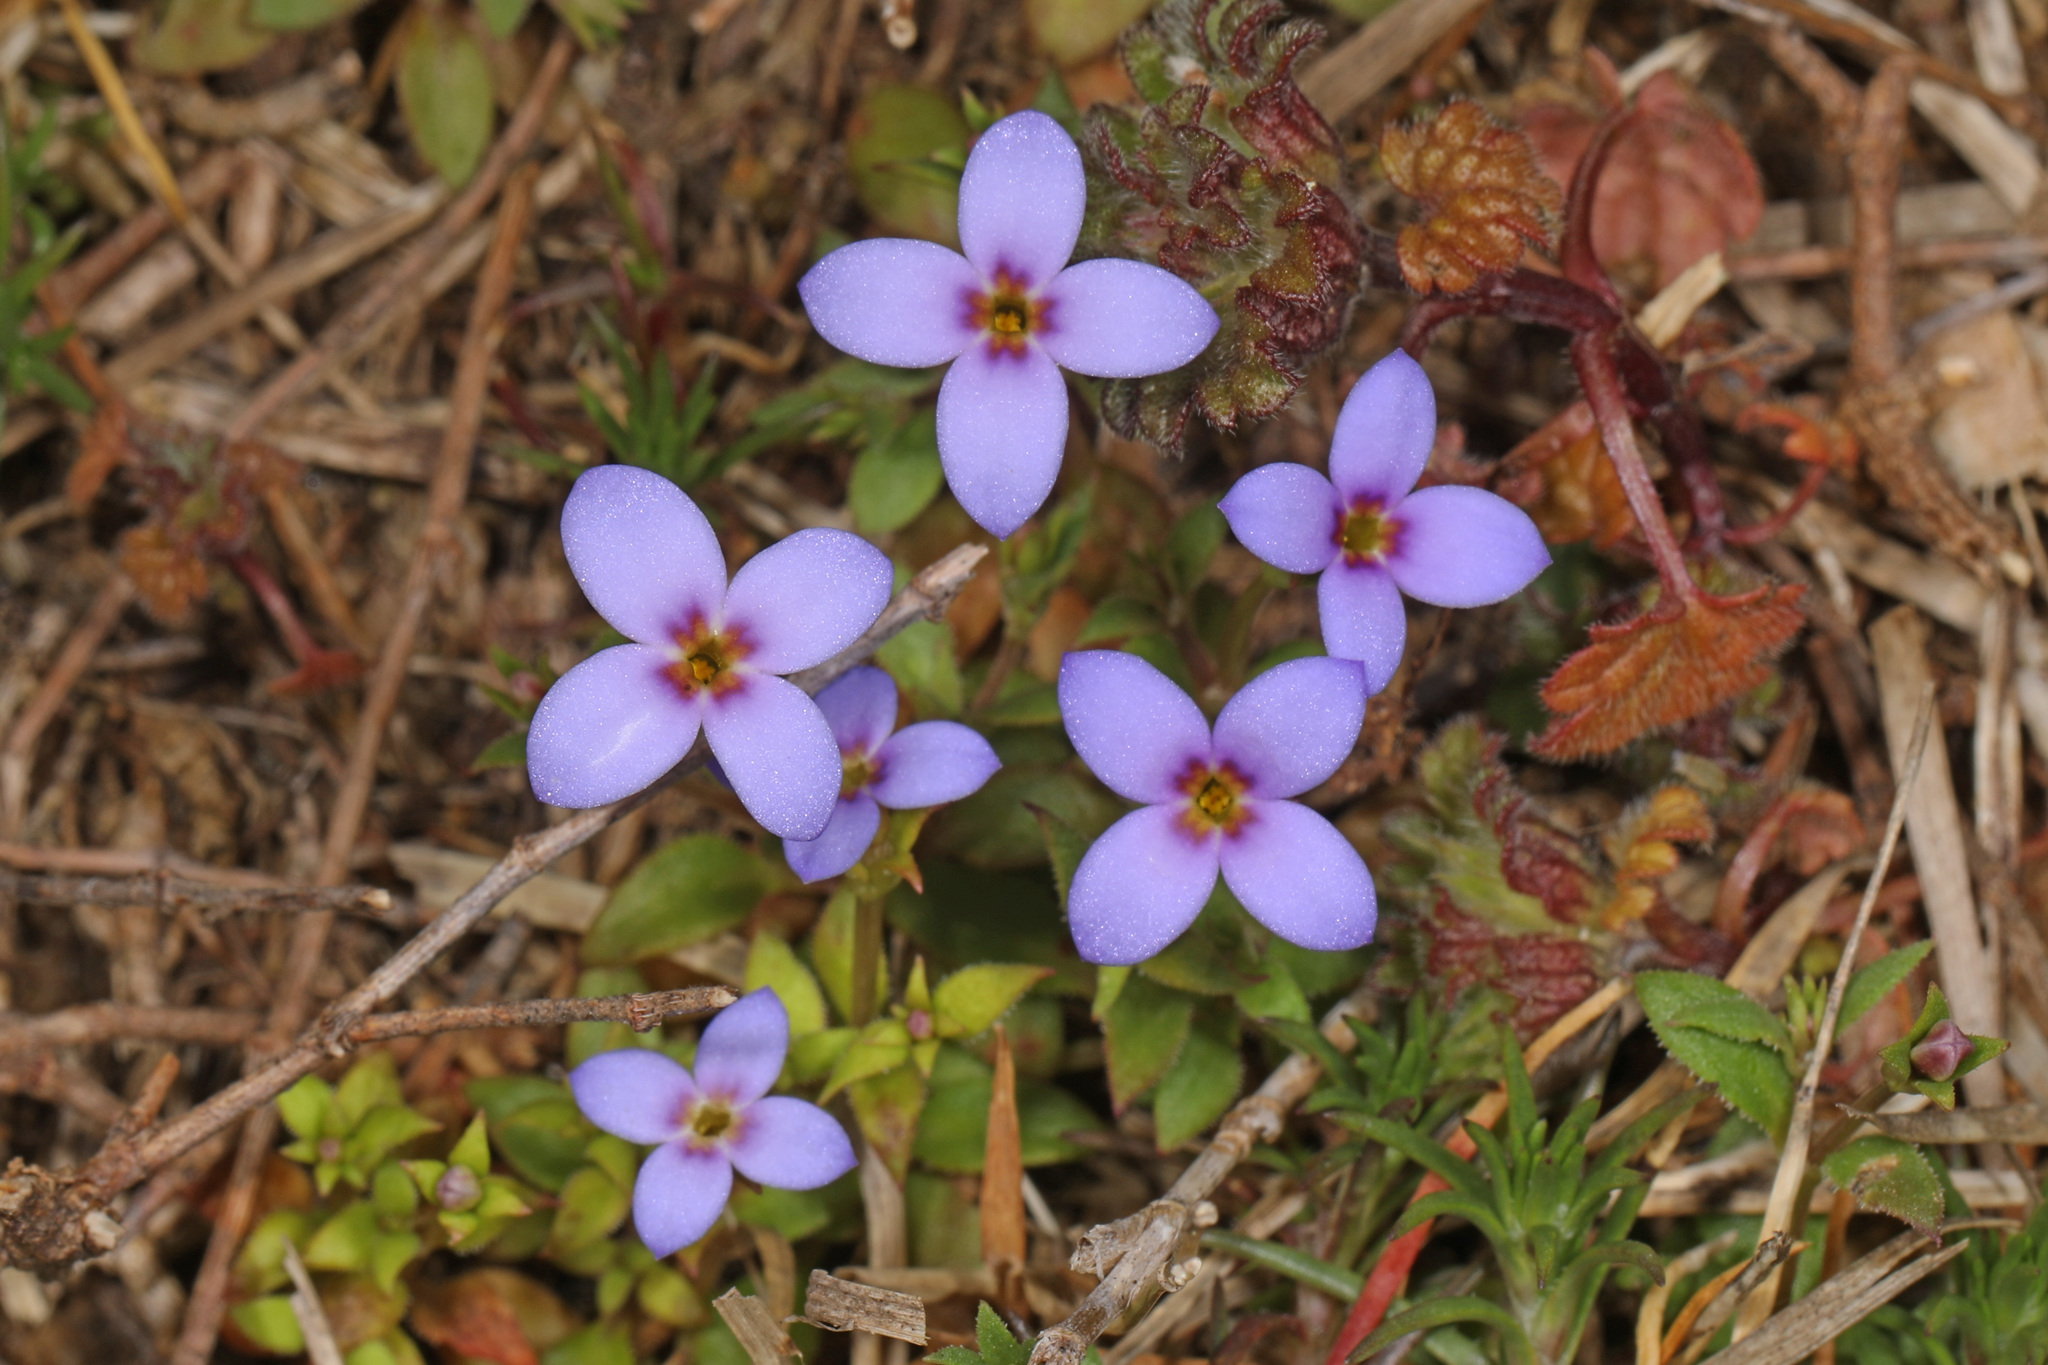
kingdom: Plantae
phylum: Tracheophyta
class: Magnoliopsida
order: Gentianales
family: Rubiaceae
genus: Houstonia
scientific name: Houstonia pusilla
